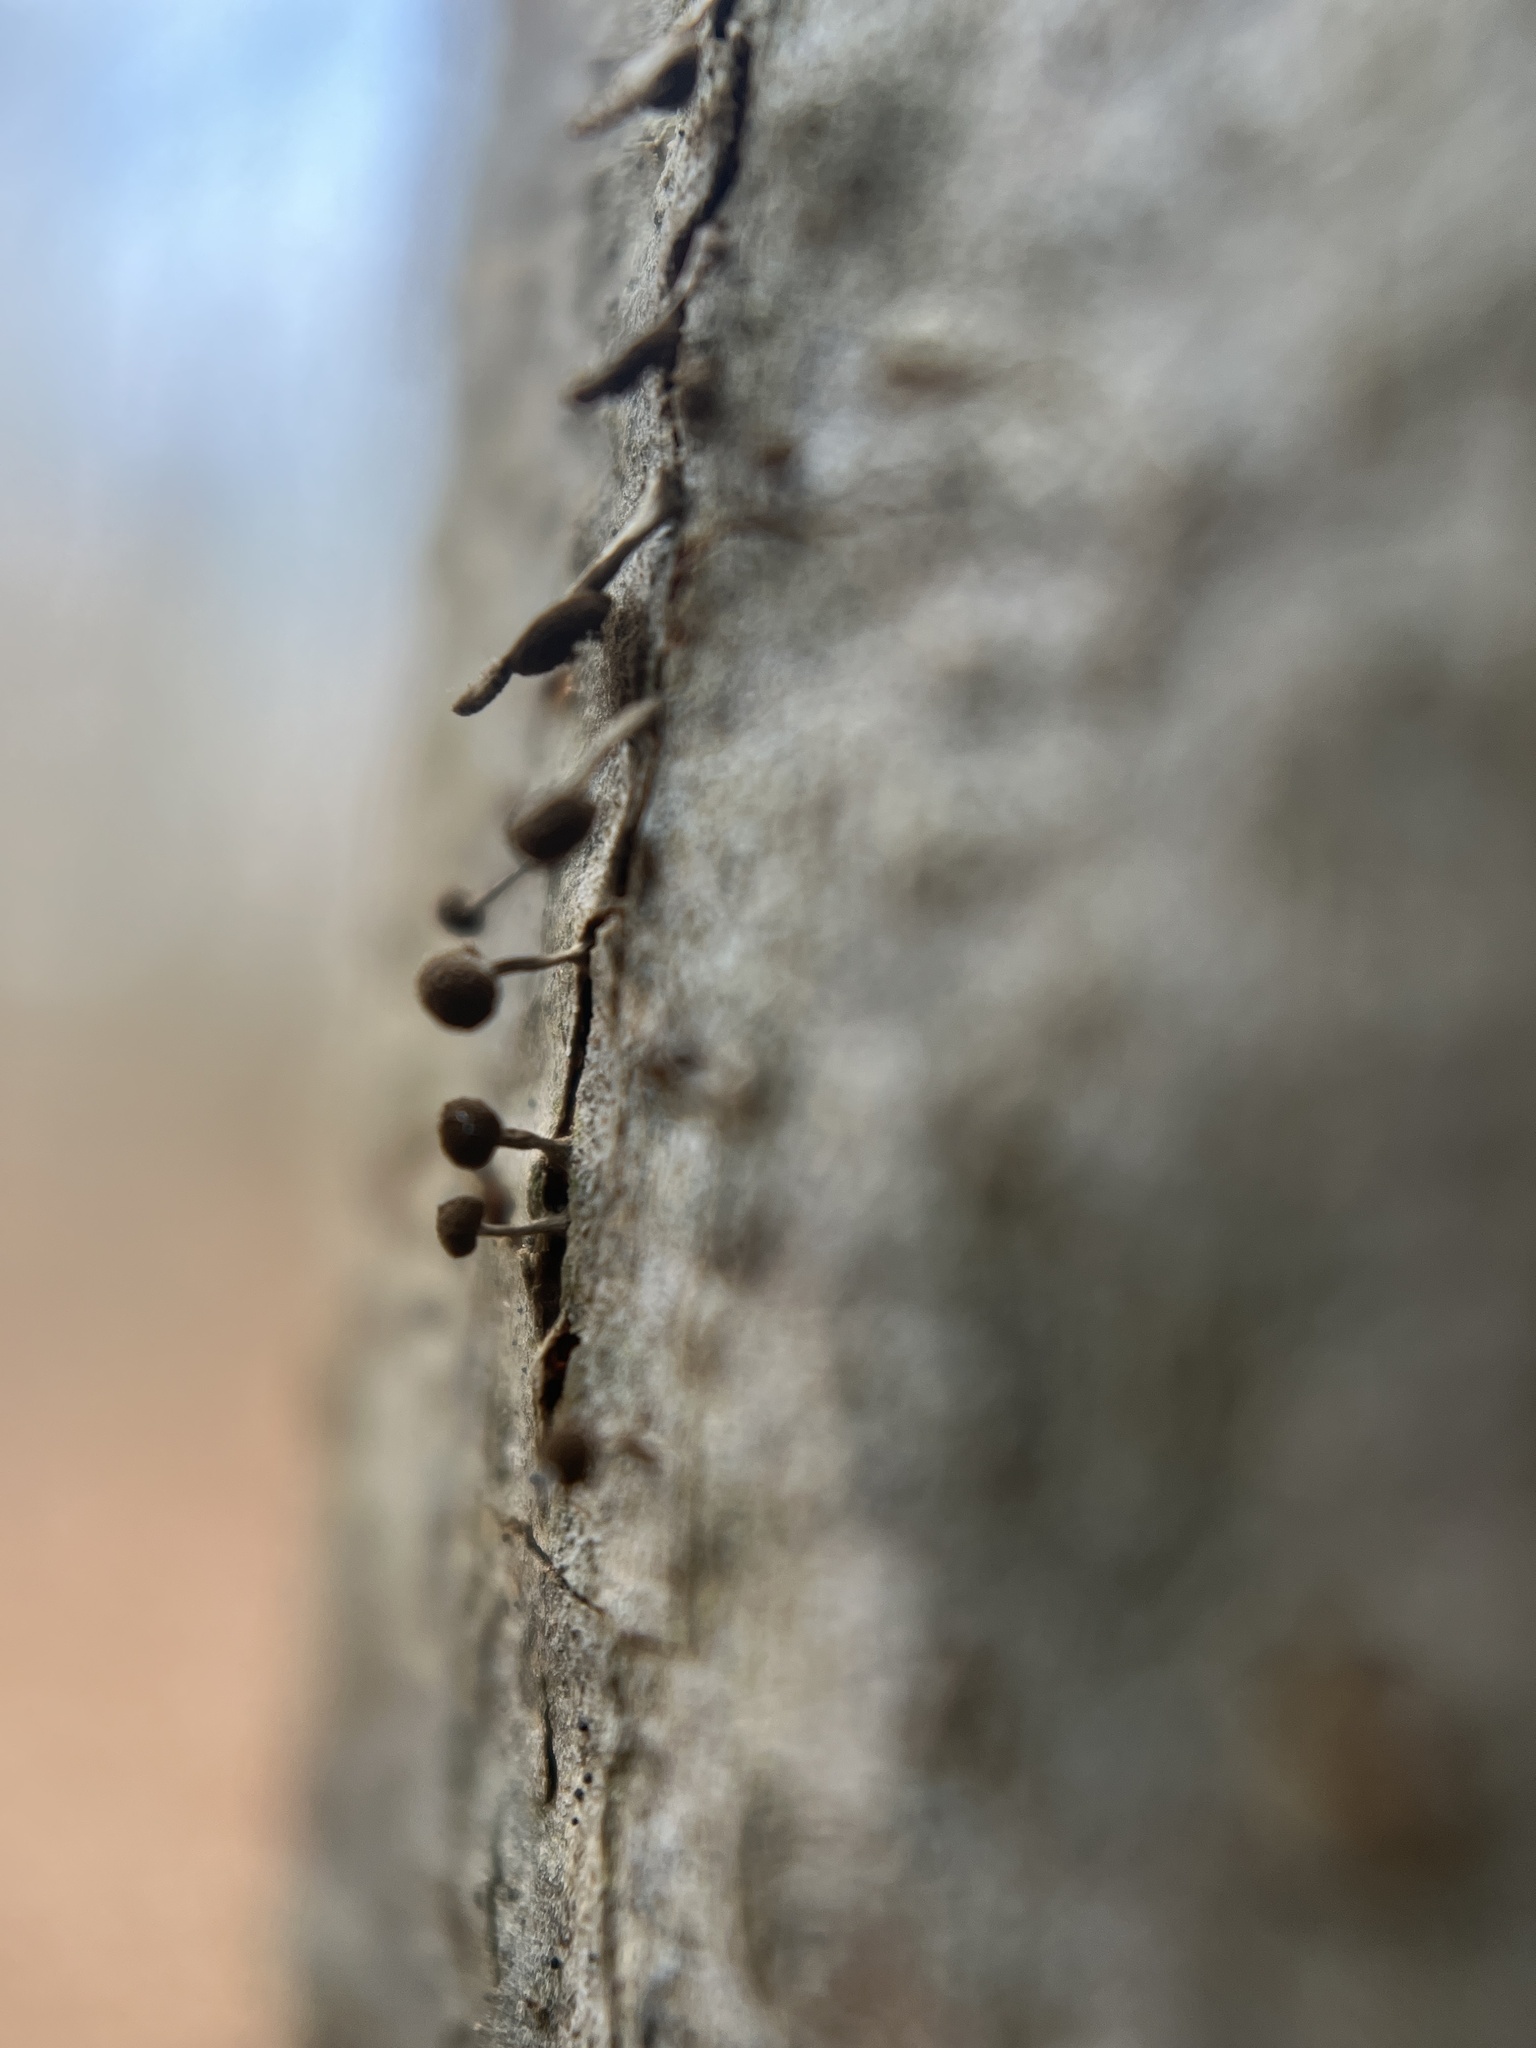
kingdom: Fungi
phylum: Basidiomycota
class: Atractiellomycetes
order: Atractiellales
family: Phleogenaceae
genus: Phleogena
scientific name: Phleogena faginea
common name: Fenugreek stalkball
